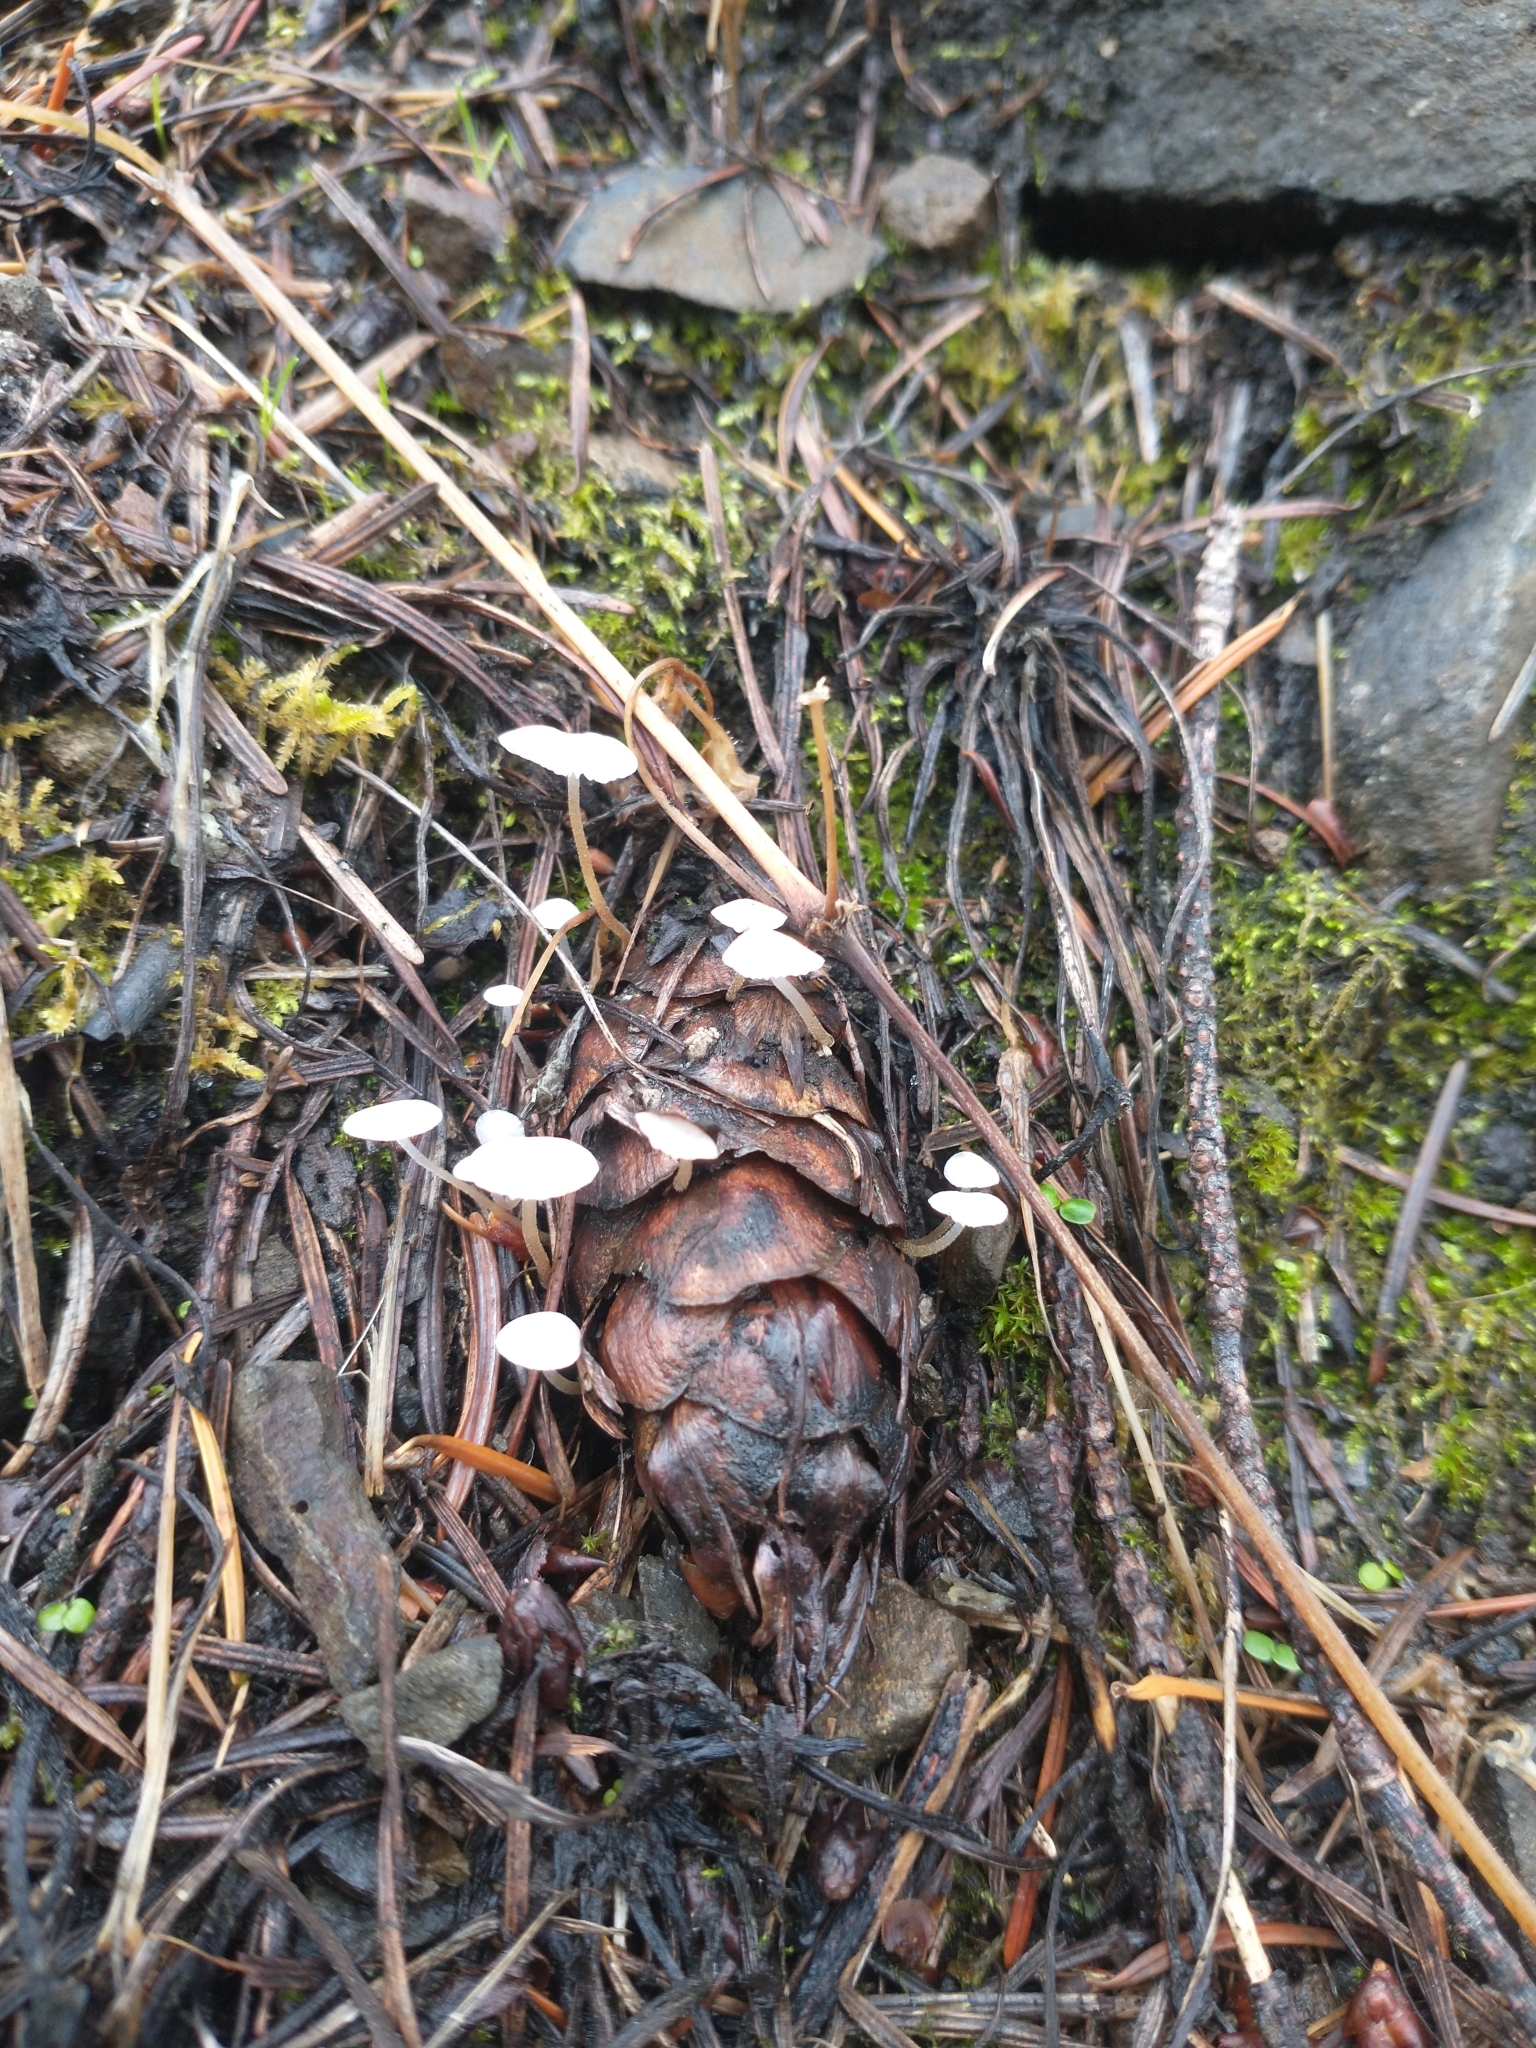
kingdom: Fungi
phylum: Basidiomycota
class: Agaricomycetes
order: Agaricales
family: Physalacriaceae
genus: Strobilurus
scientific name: Strobilurus trullisatus
